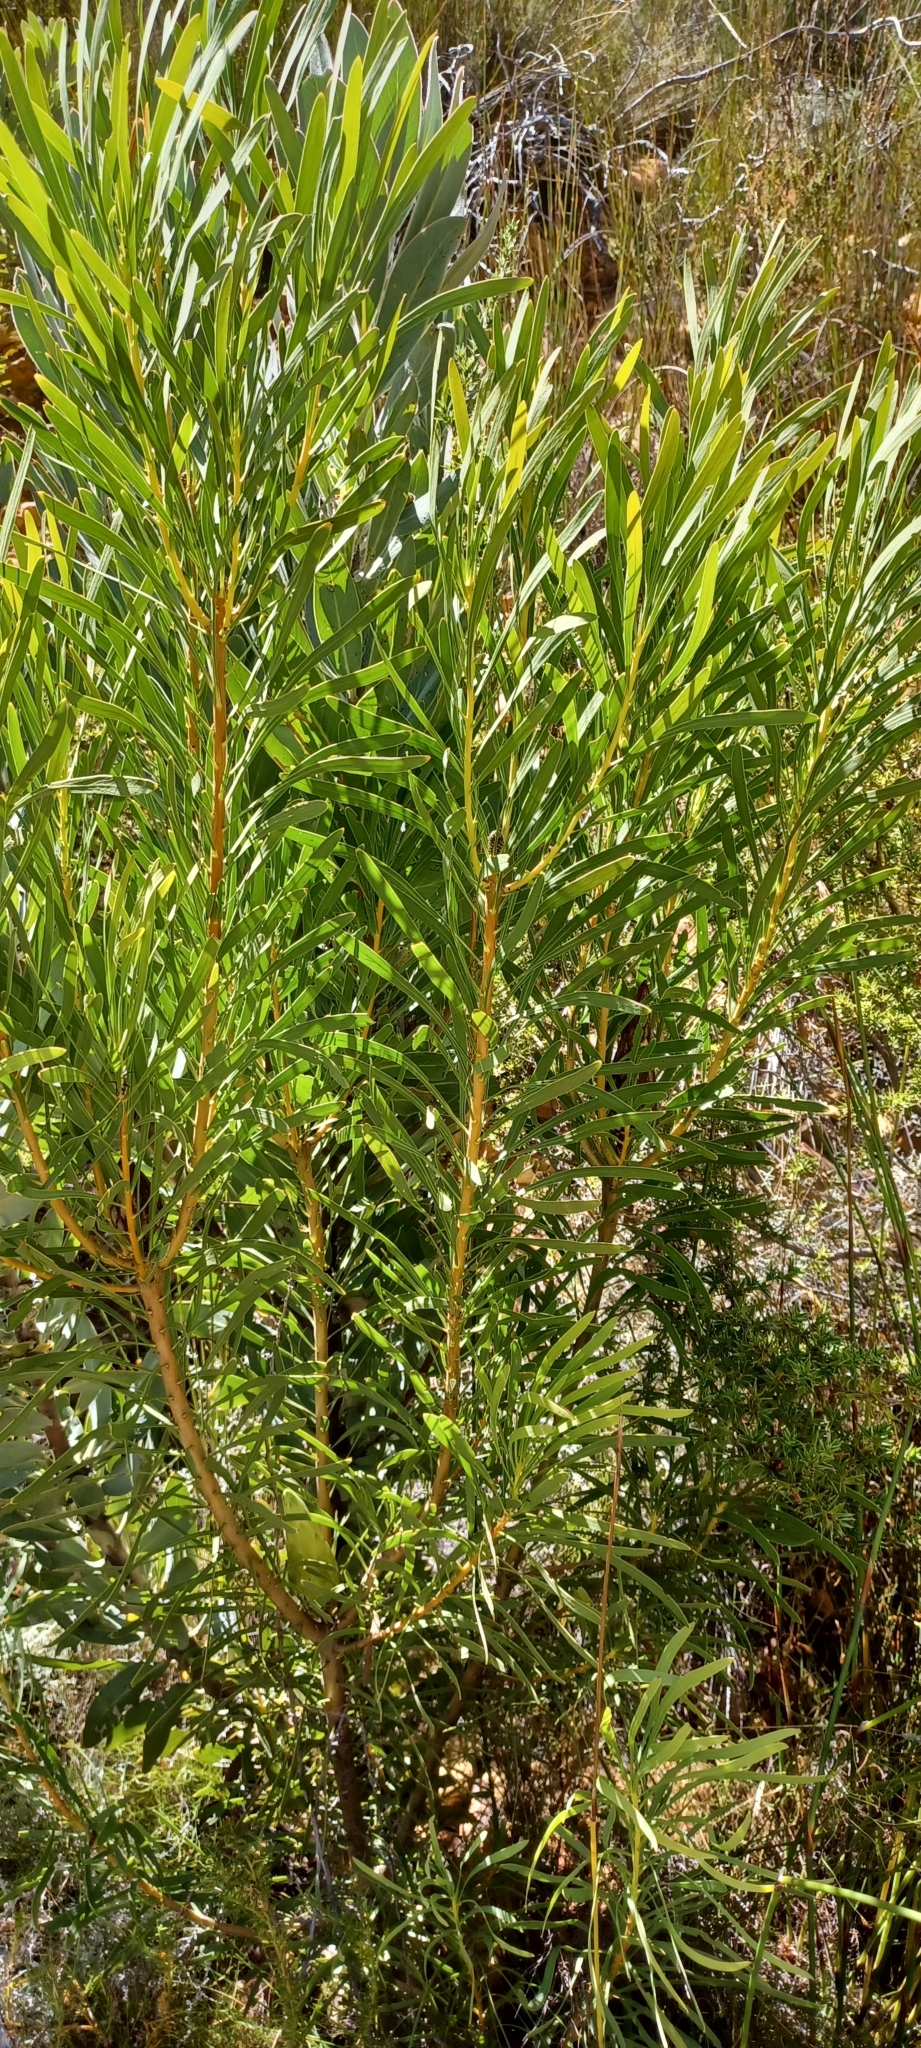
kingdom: Plantae
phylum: Tracheophyta
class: Magnoliopsida
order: Proteales
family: Proteaceae
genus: Protea
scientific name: Protea repens
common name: Sugarbush
